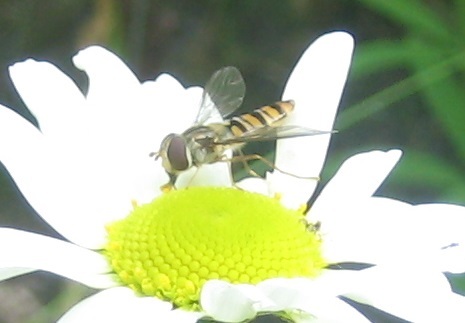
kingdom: Animalia
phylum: Arthropoda
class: Insecta
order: Diptera
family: Syrphidae
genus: Episyrphus
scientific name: Episyrphus balteatus
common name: Marmalade hoverfly
